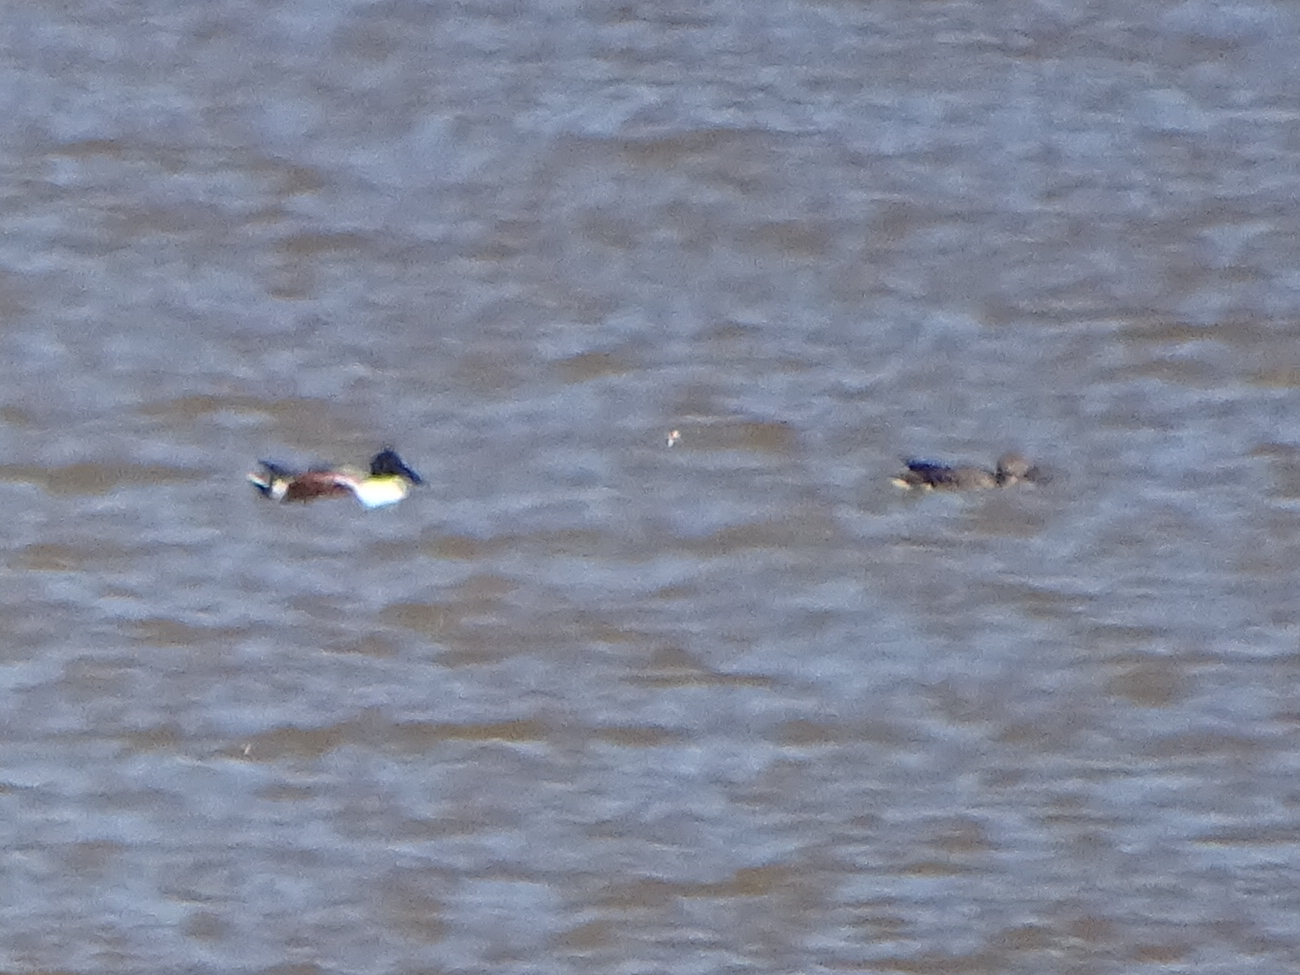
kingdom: Animalia
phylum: Chordata
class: Aves
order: Anseriformes
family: Anatidae
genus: Spatula
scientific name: Spatula clypeata
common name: Northern shoveler
